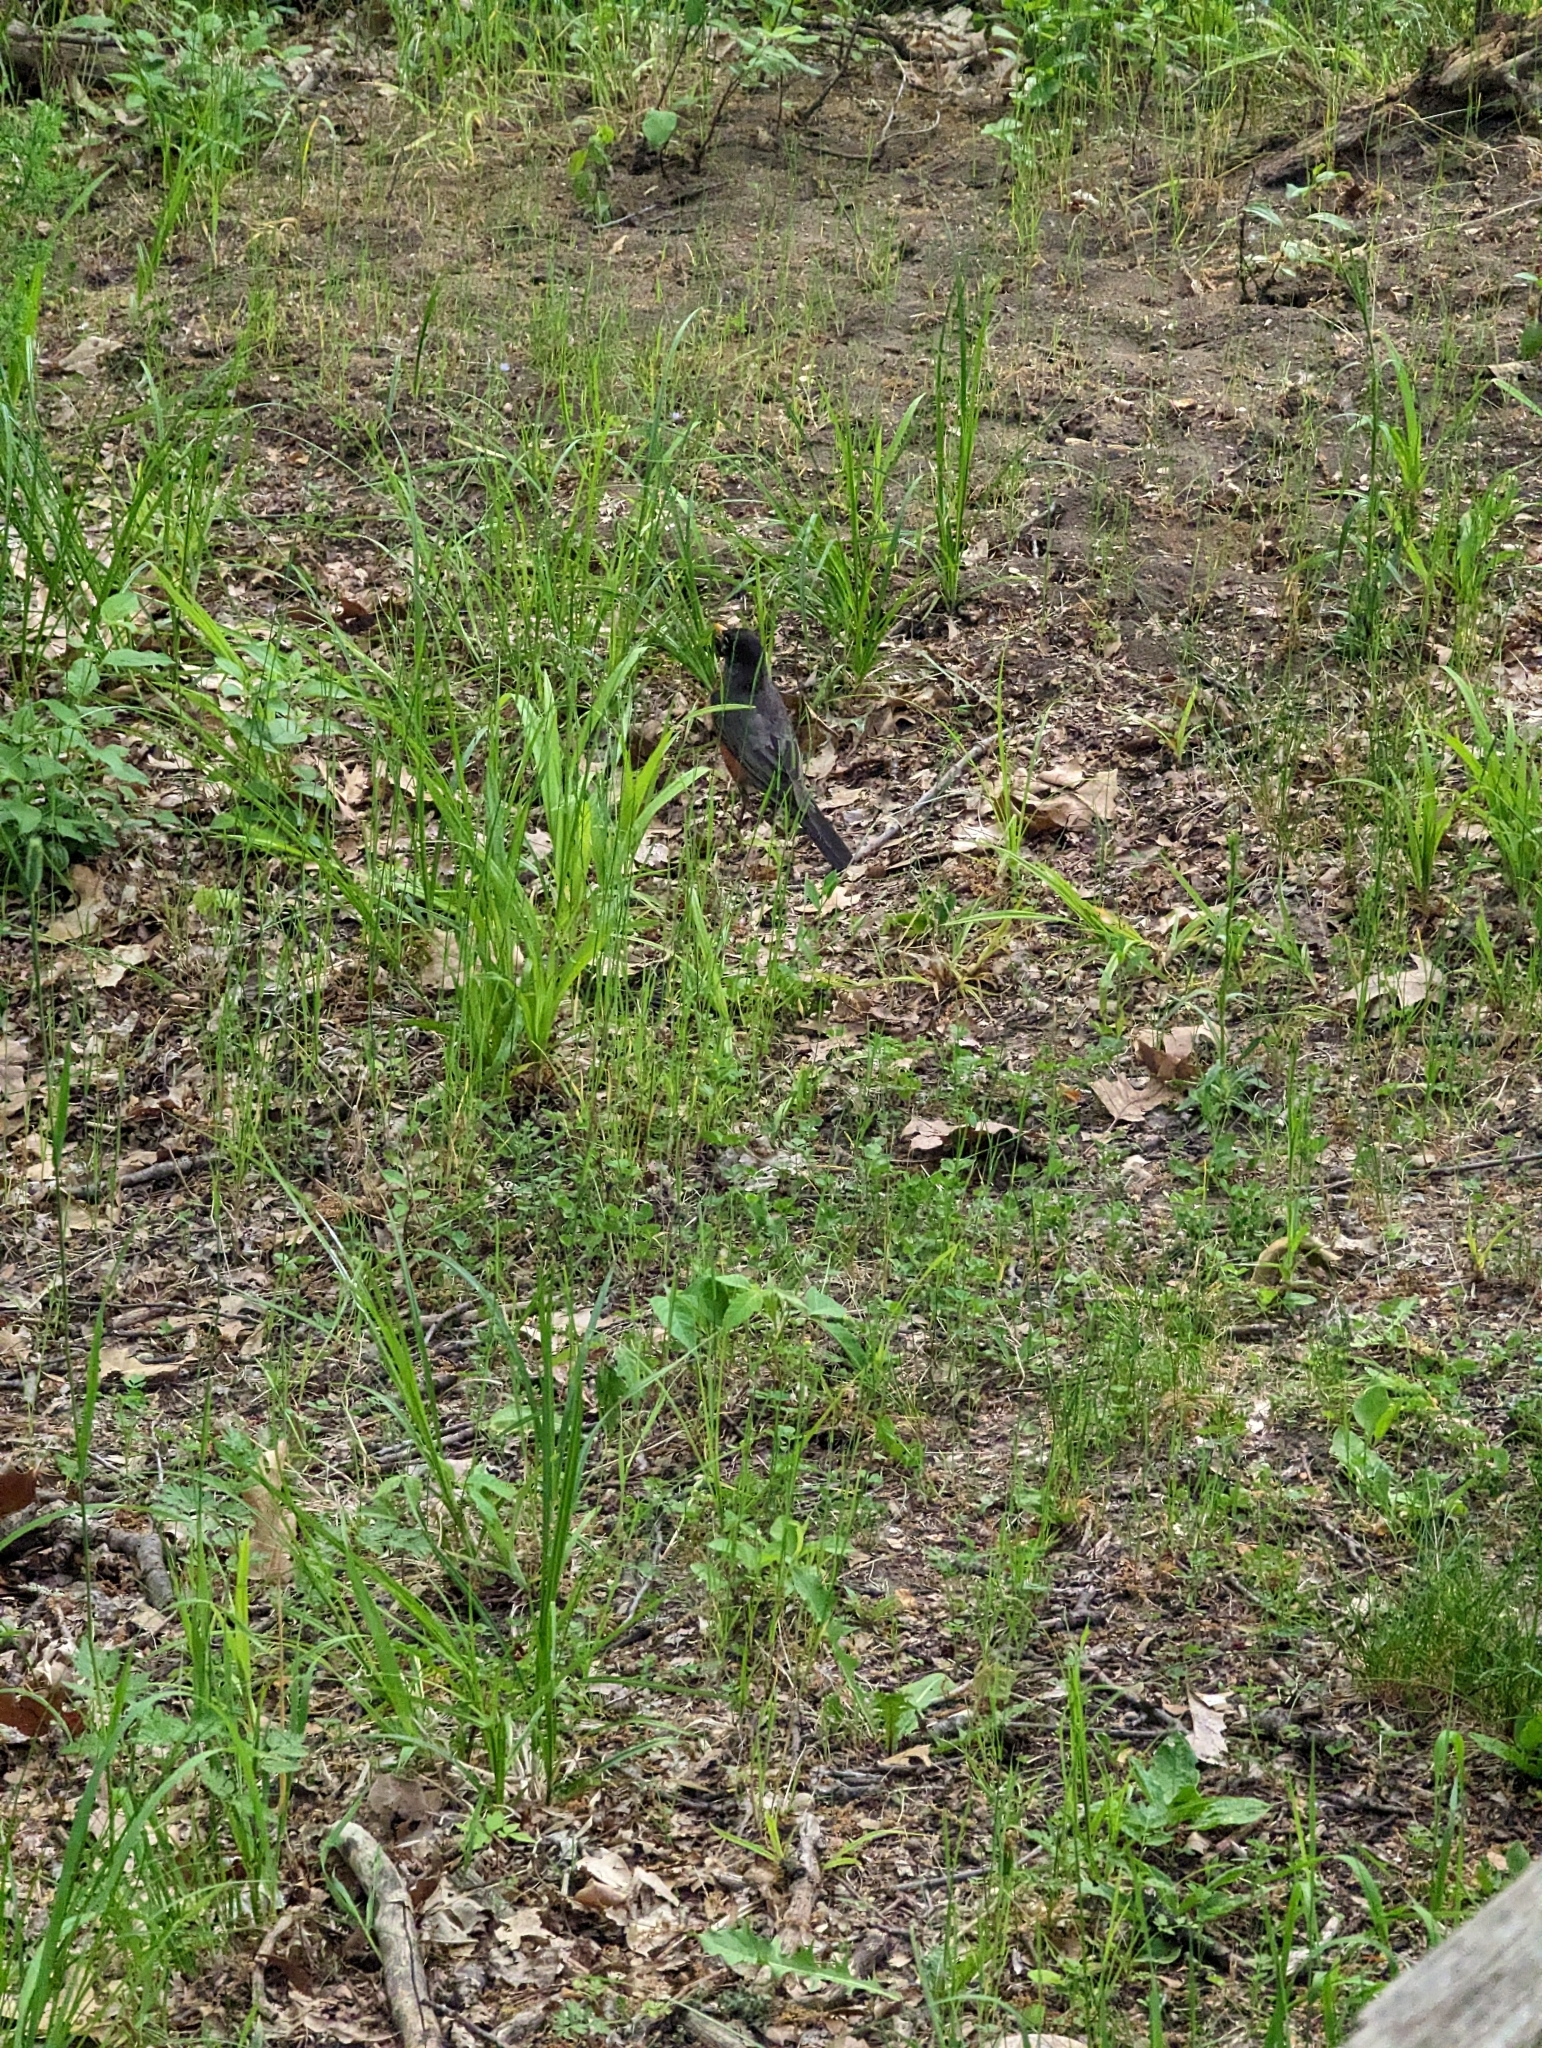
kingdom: Animalia
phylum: Chordata
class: Aves
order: Passeriformes
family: Turdidae
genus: Turdus
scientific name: Turdus migratorius
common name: American robin
